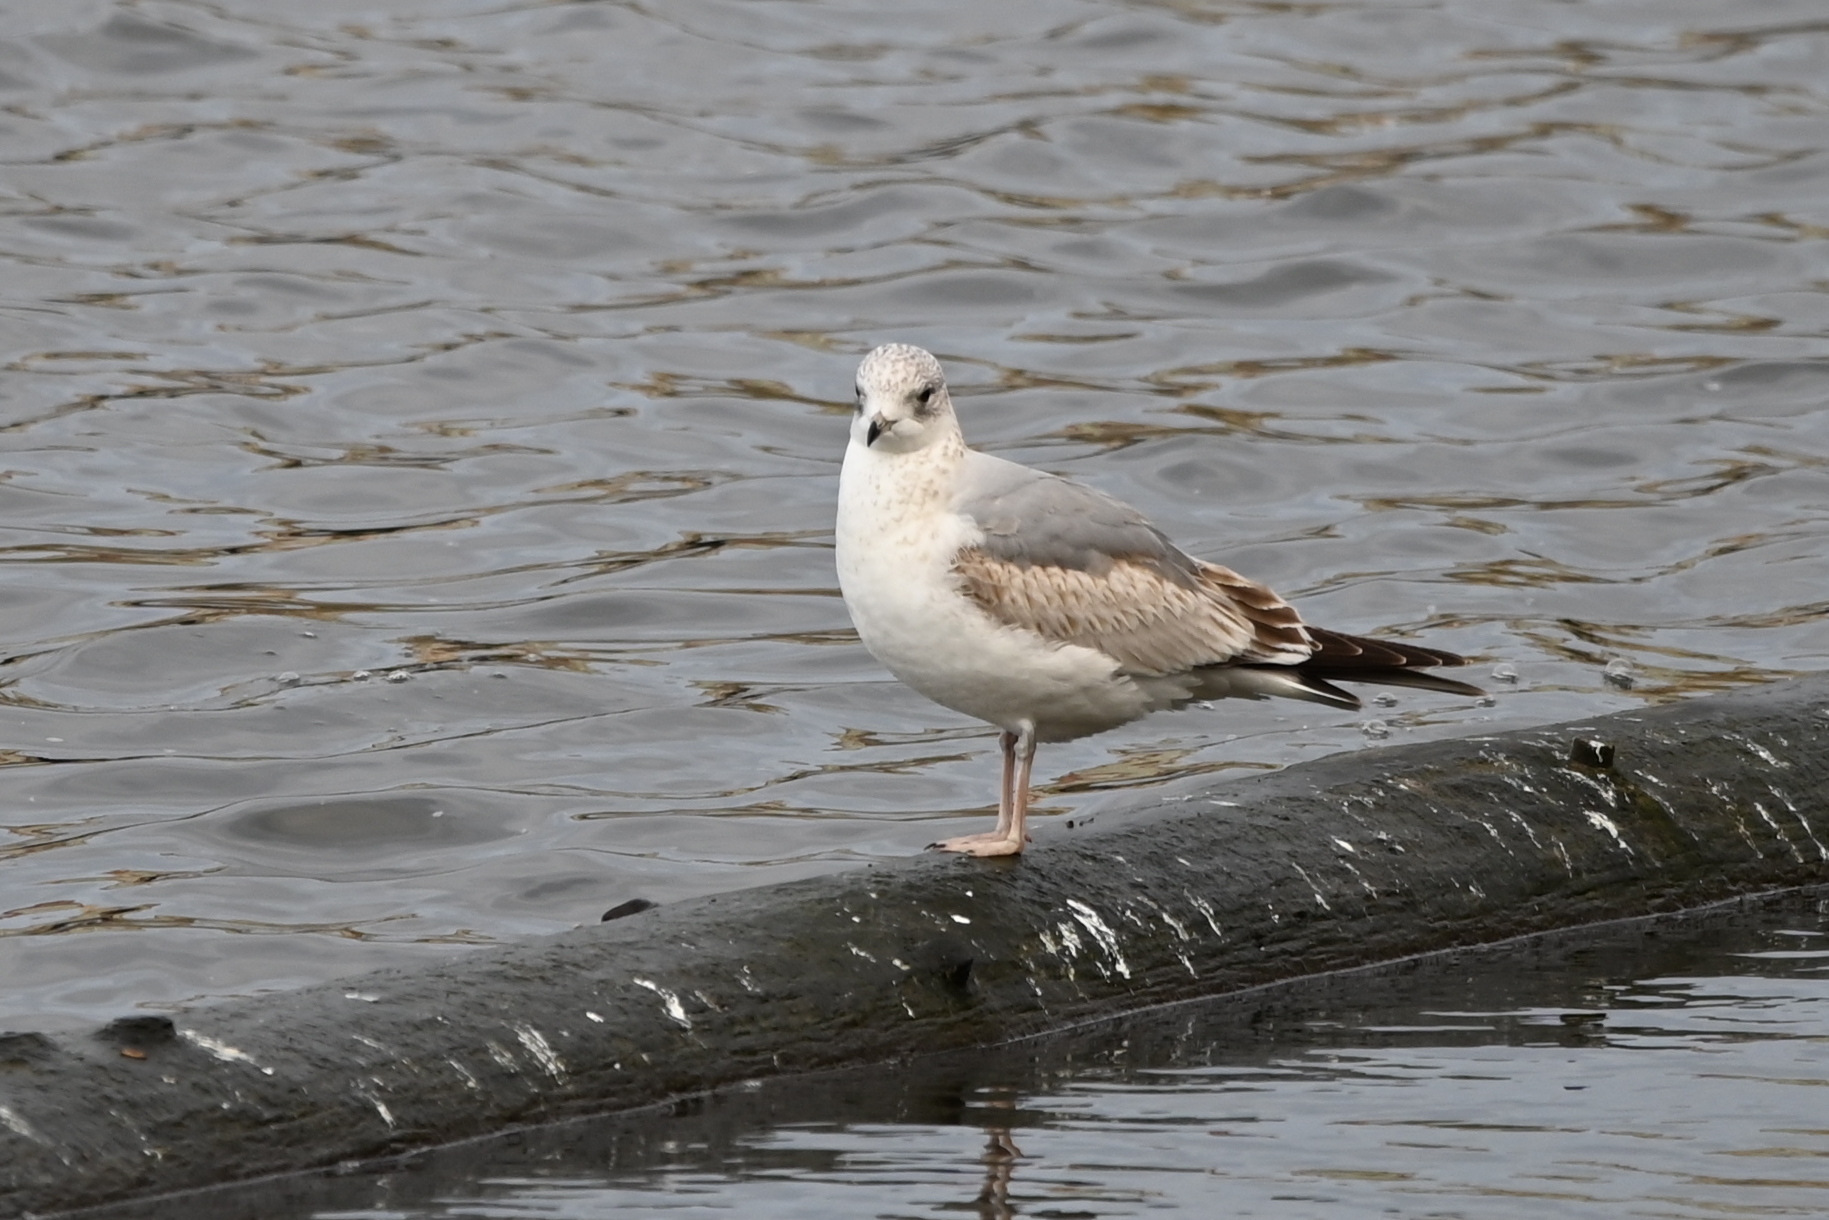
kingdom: Animalia
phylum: Chordata
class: Aves
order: Charadriiformes
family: Laridae
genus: Larus
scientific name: Larus canus
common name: Mew gull
